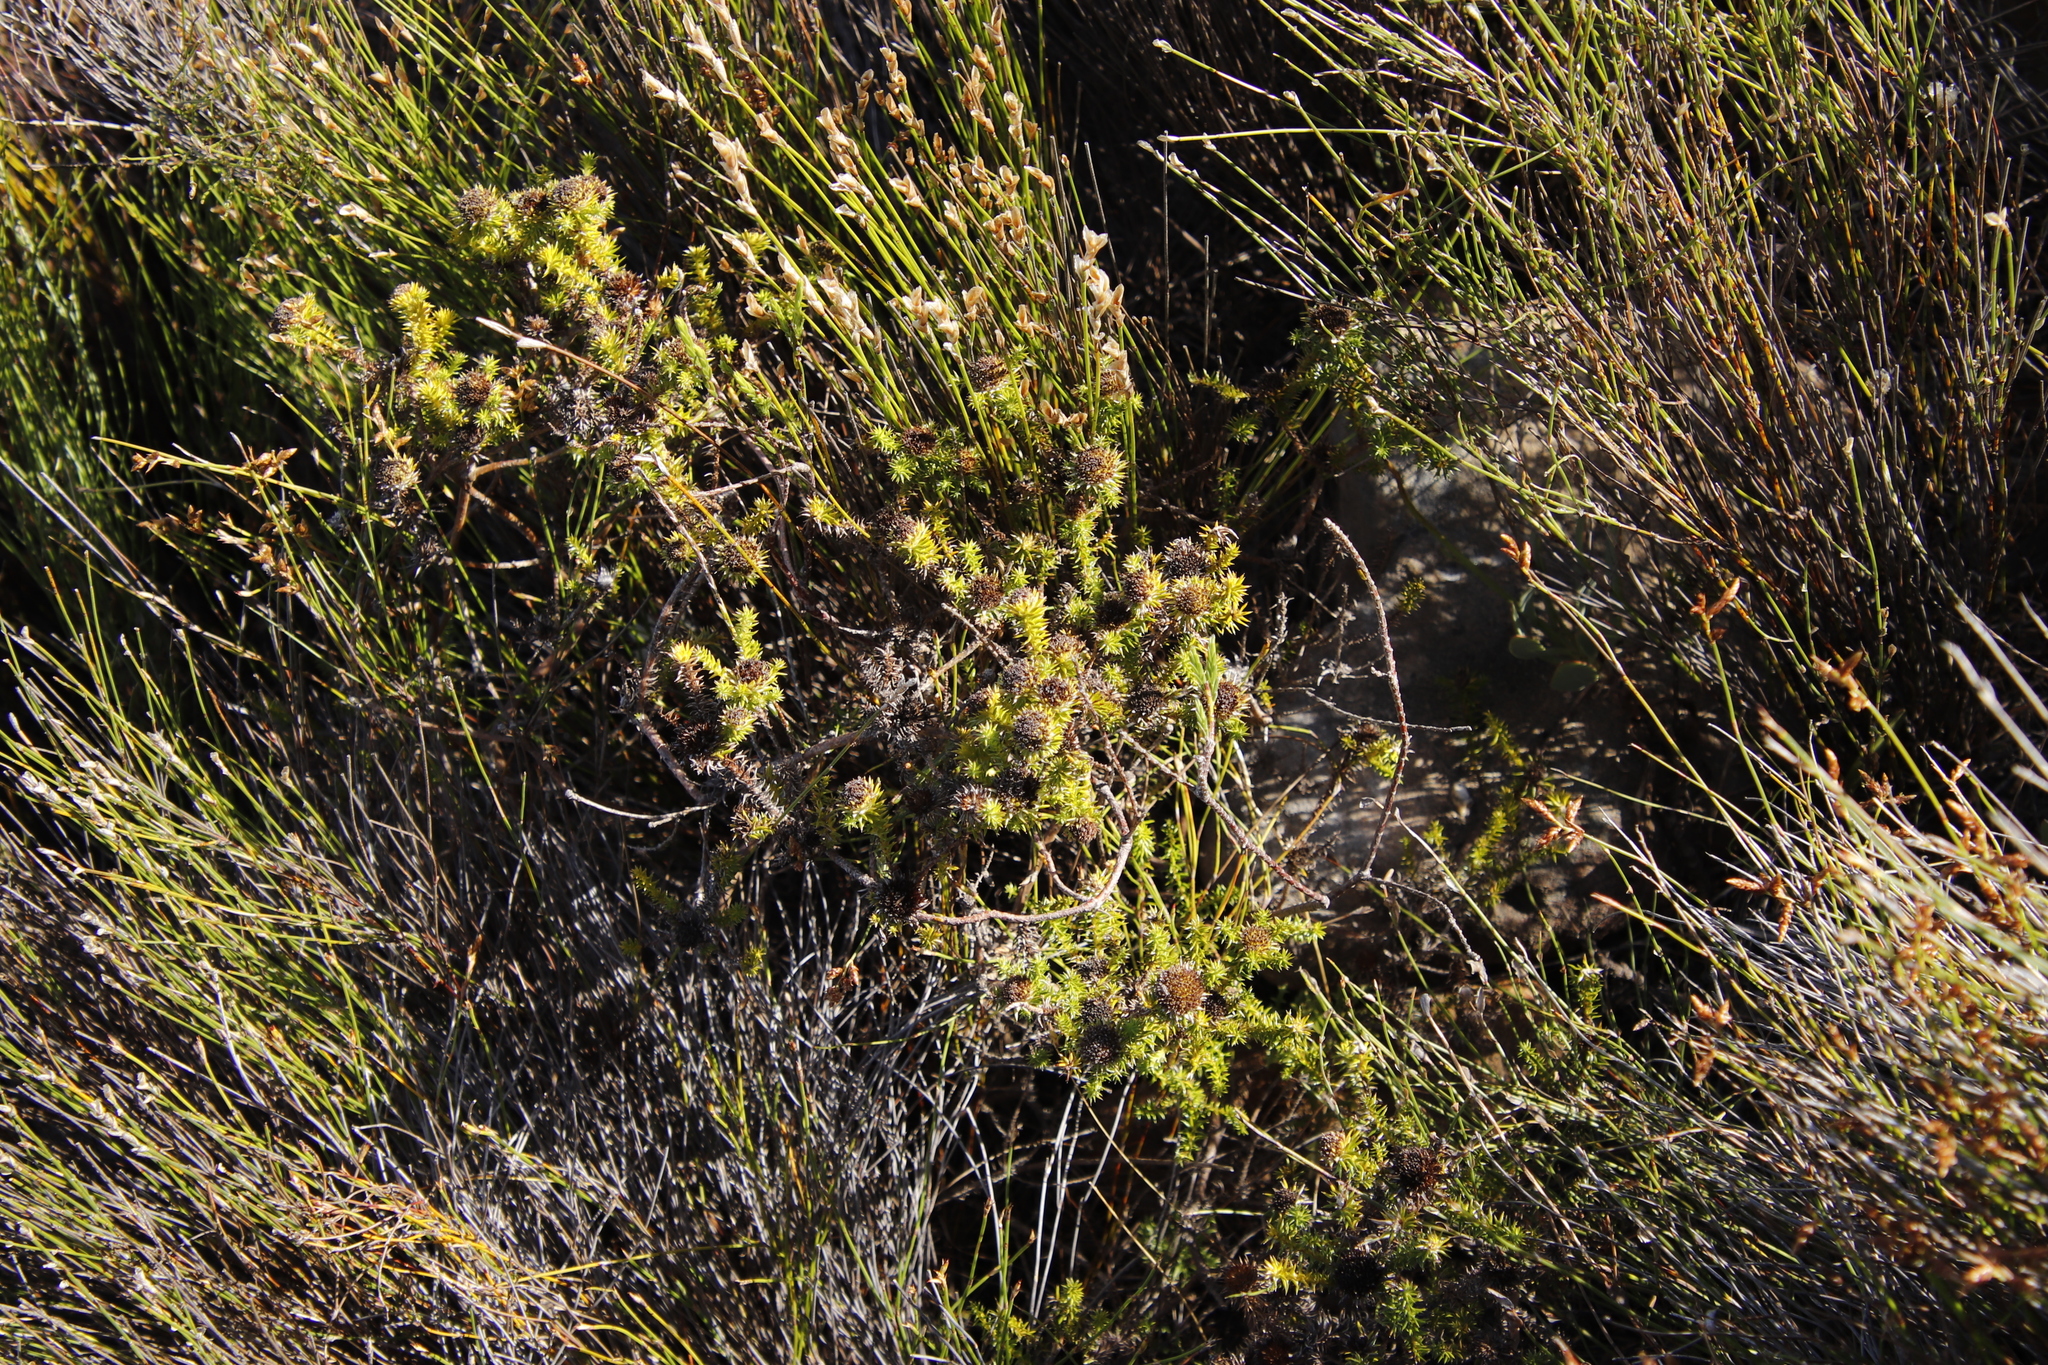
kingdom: Plantae
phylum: Tracheophyta
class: Magnoliopsida
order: Asterales
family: Asteraceae
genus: Stoebe
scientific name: Stoebe aethiopica
